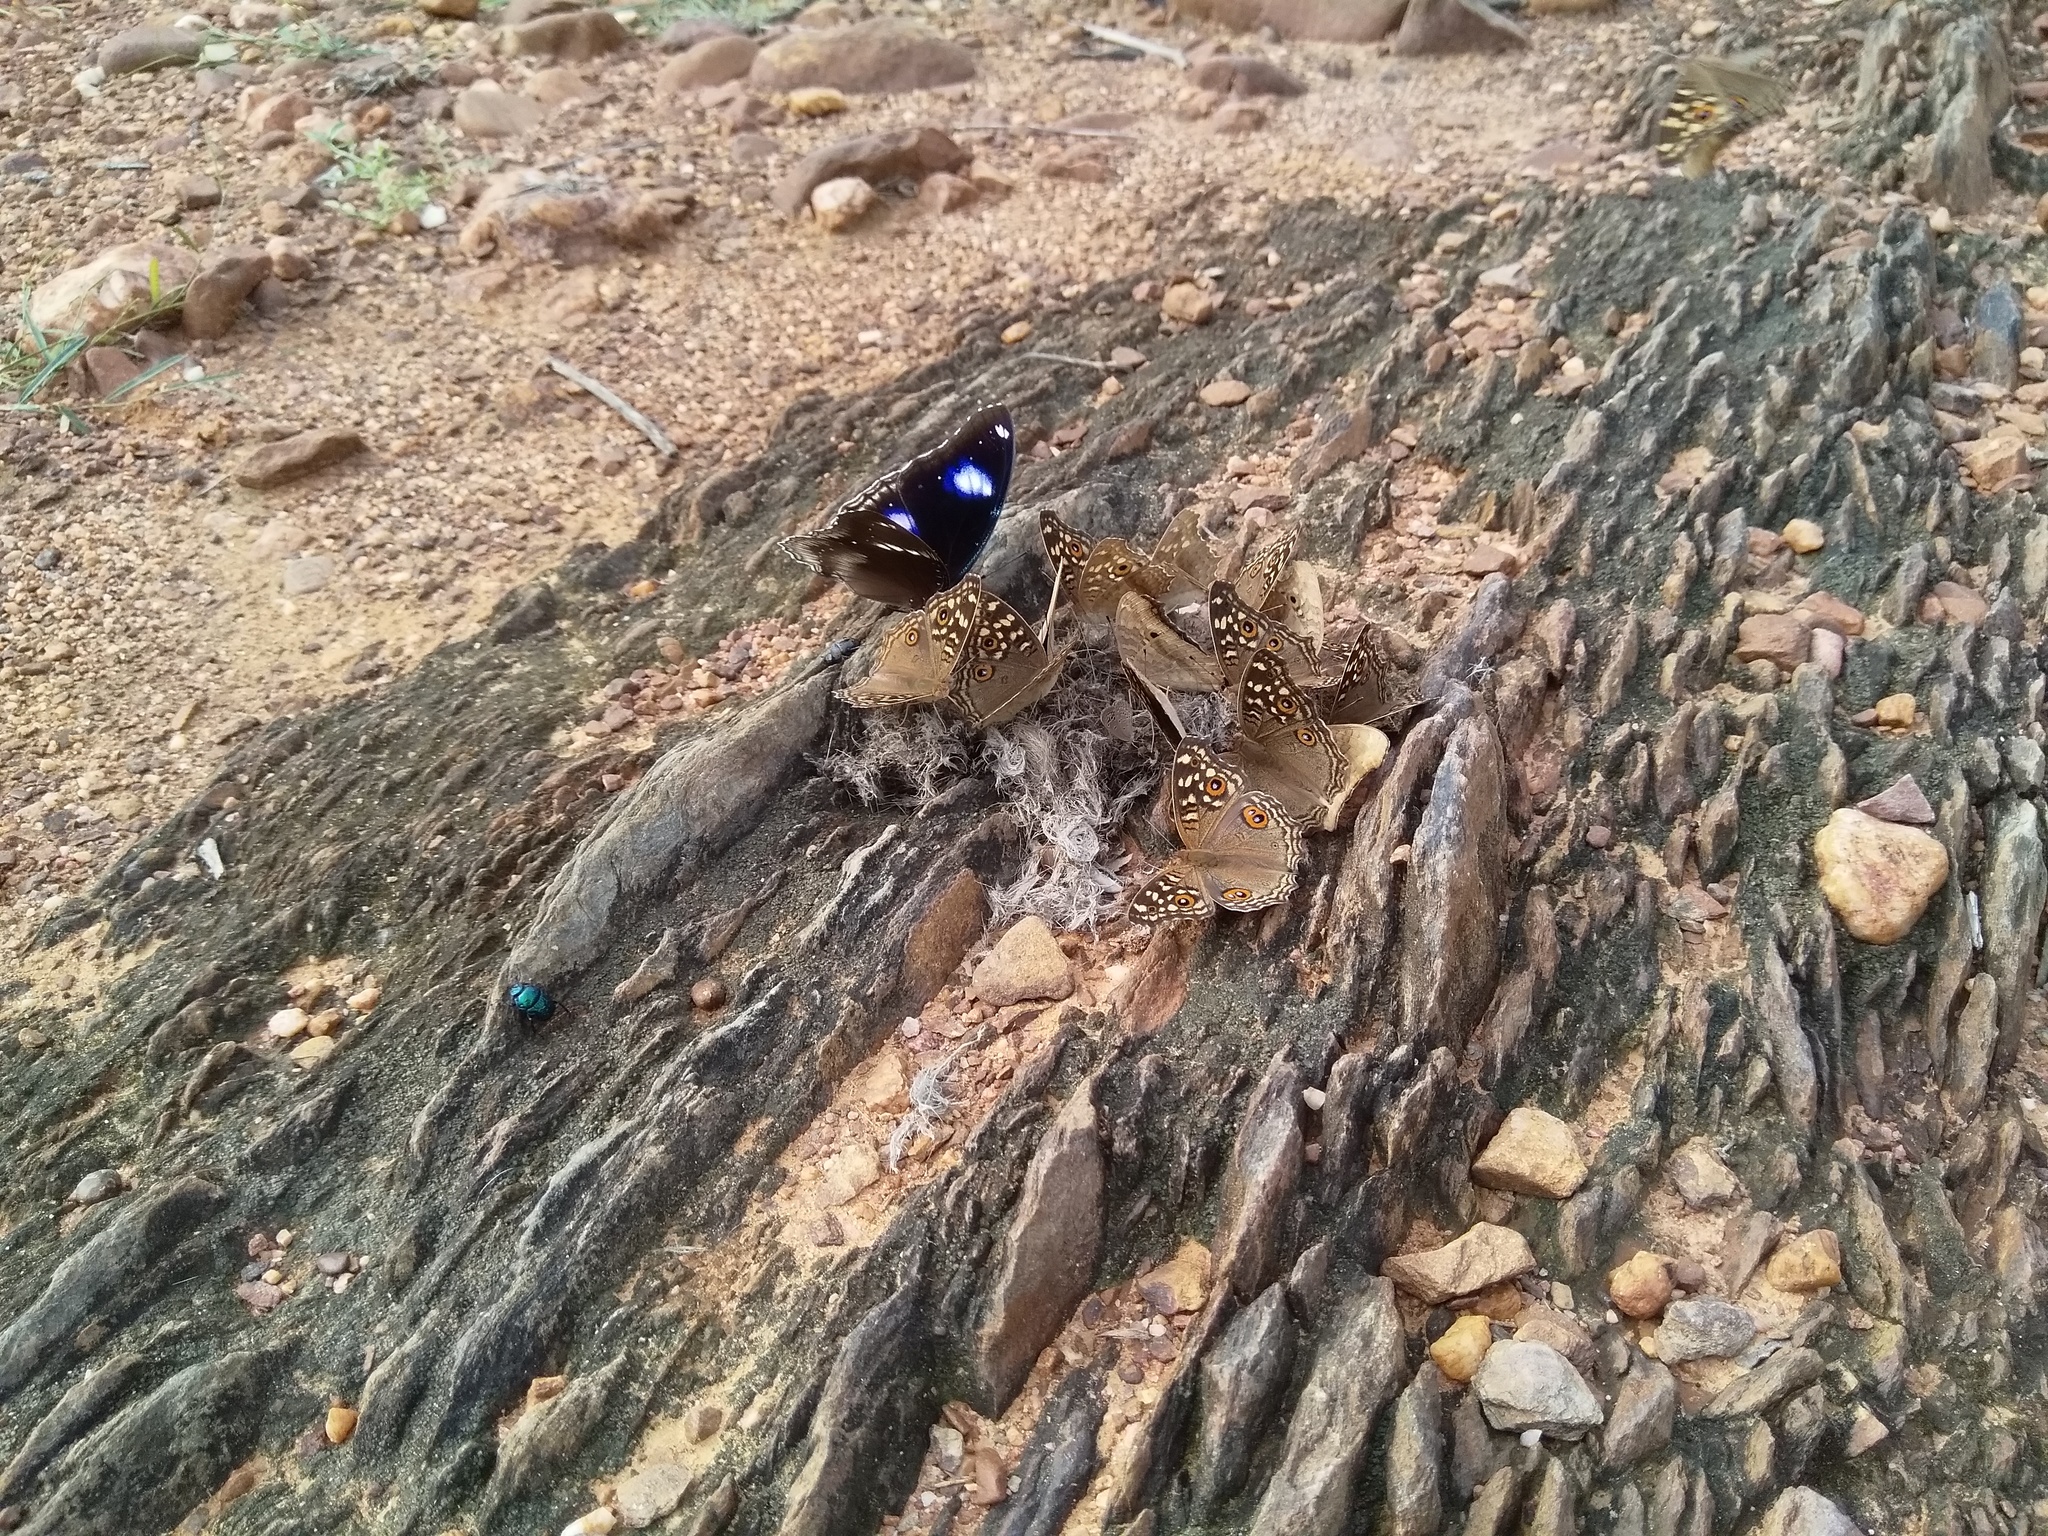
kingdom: Animalia
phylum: Arthropoda
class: Insecta
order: Lepidoptera
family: Nymphalidae
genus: Hypolimnas
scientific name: Hypolimnas bolina
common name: Great eggfly
